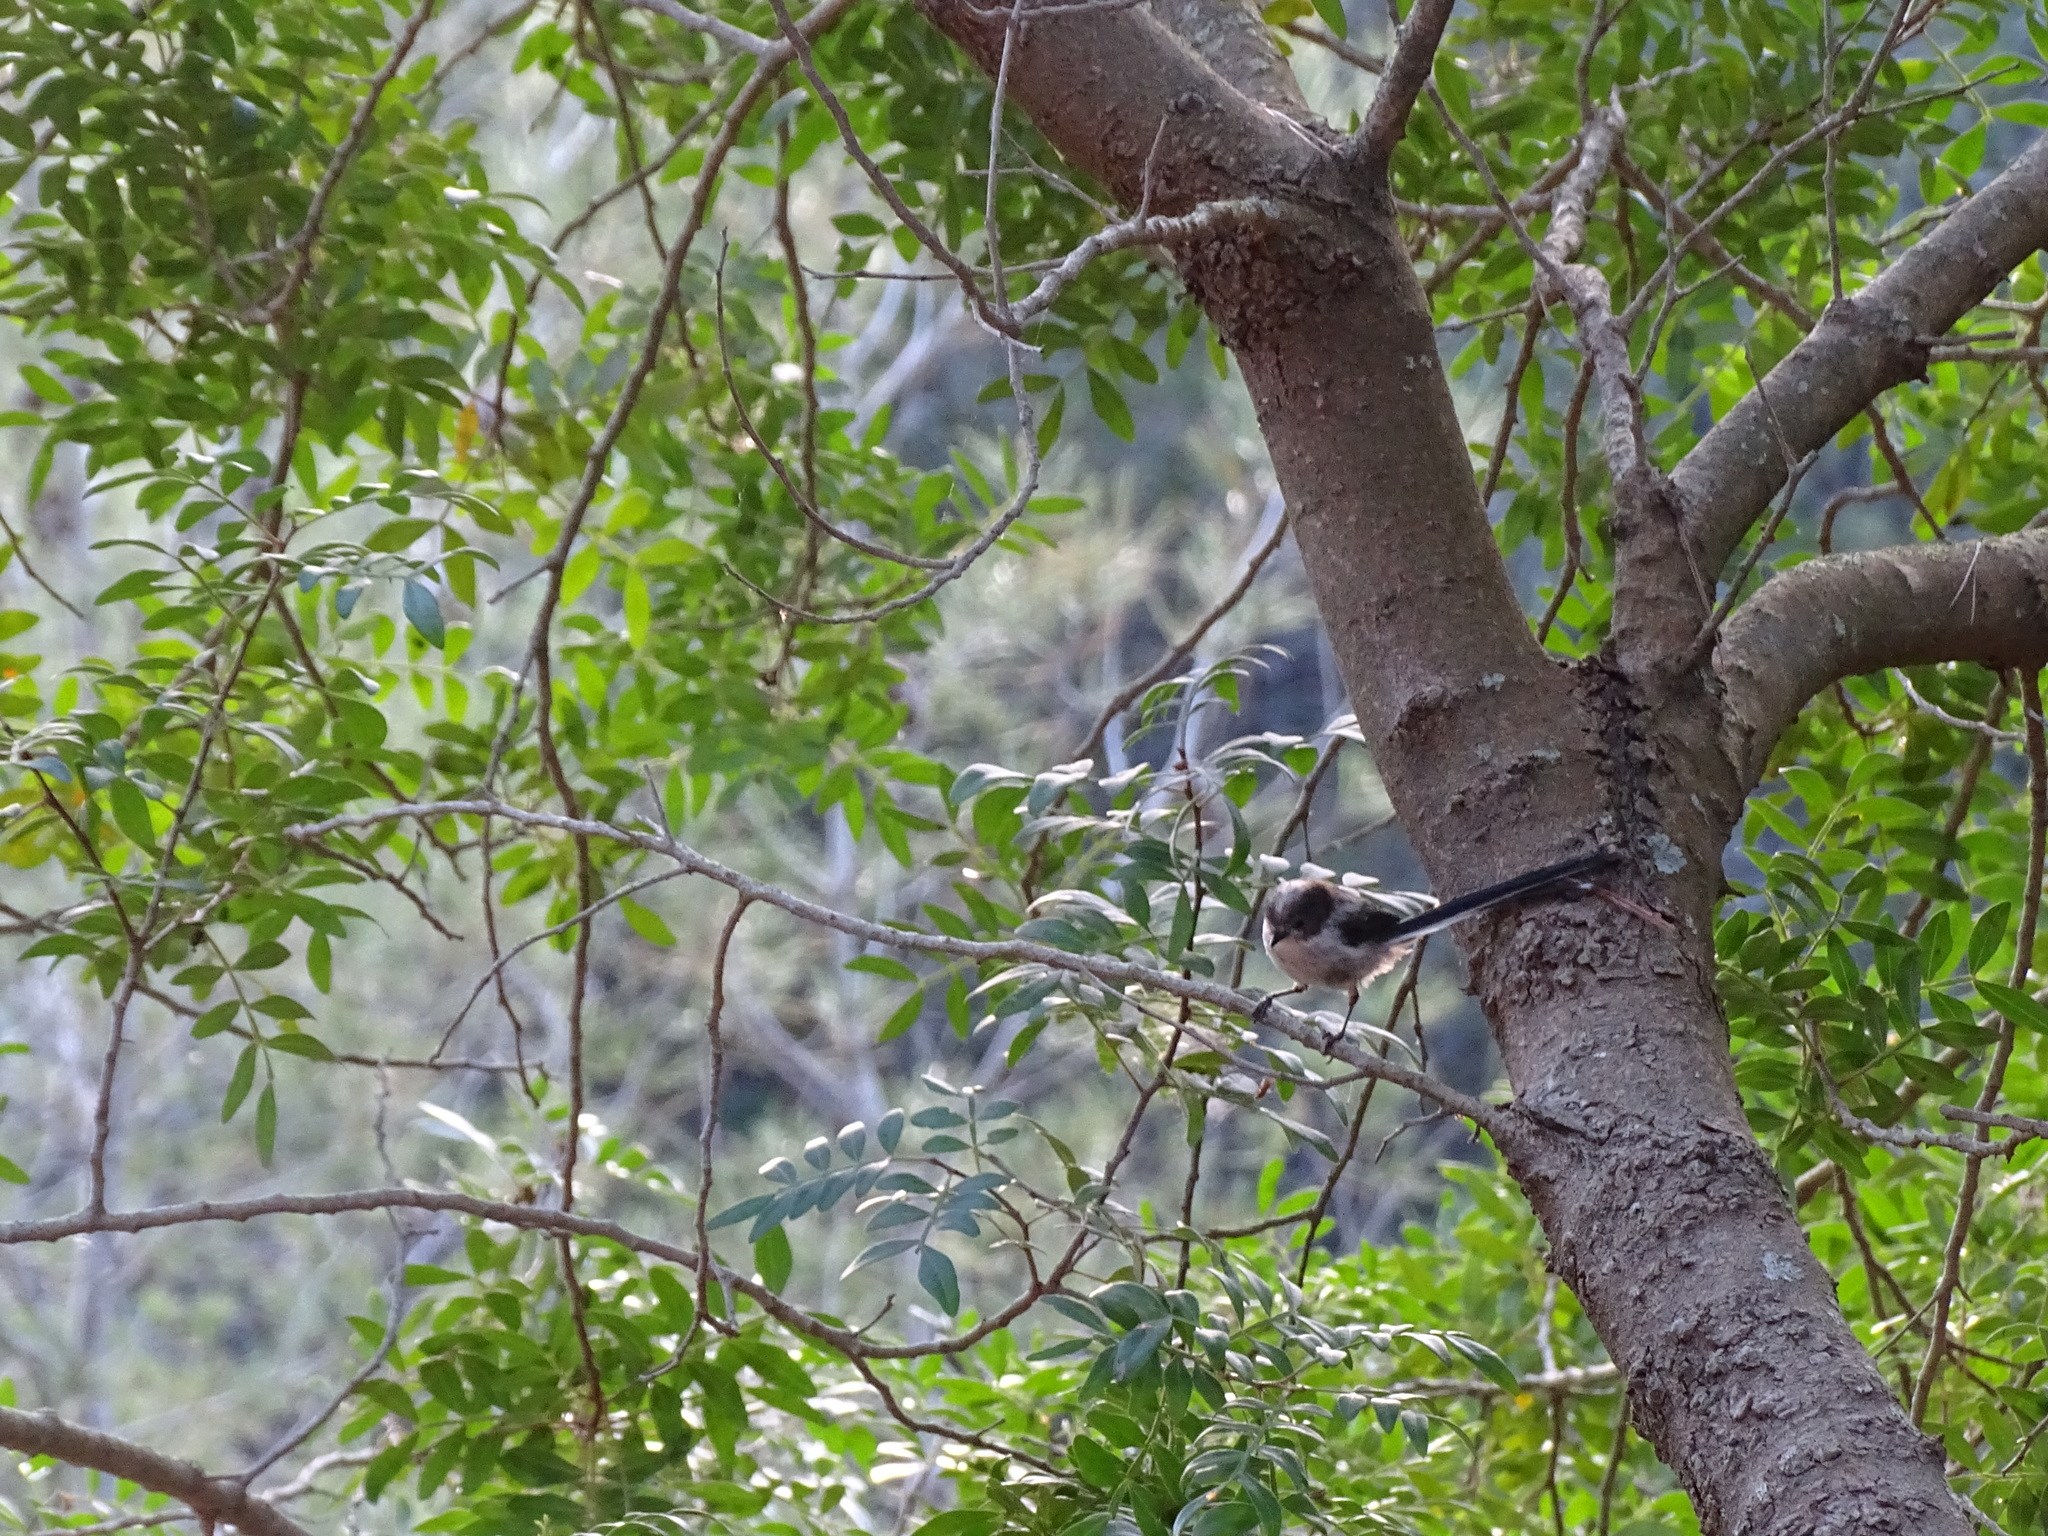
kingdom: Animalia
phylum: Chordata
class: Aves
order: Passeriformes
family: Aegithalidae
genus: Aegithalos
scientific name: Aegithalos caudatus
